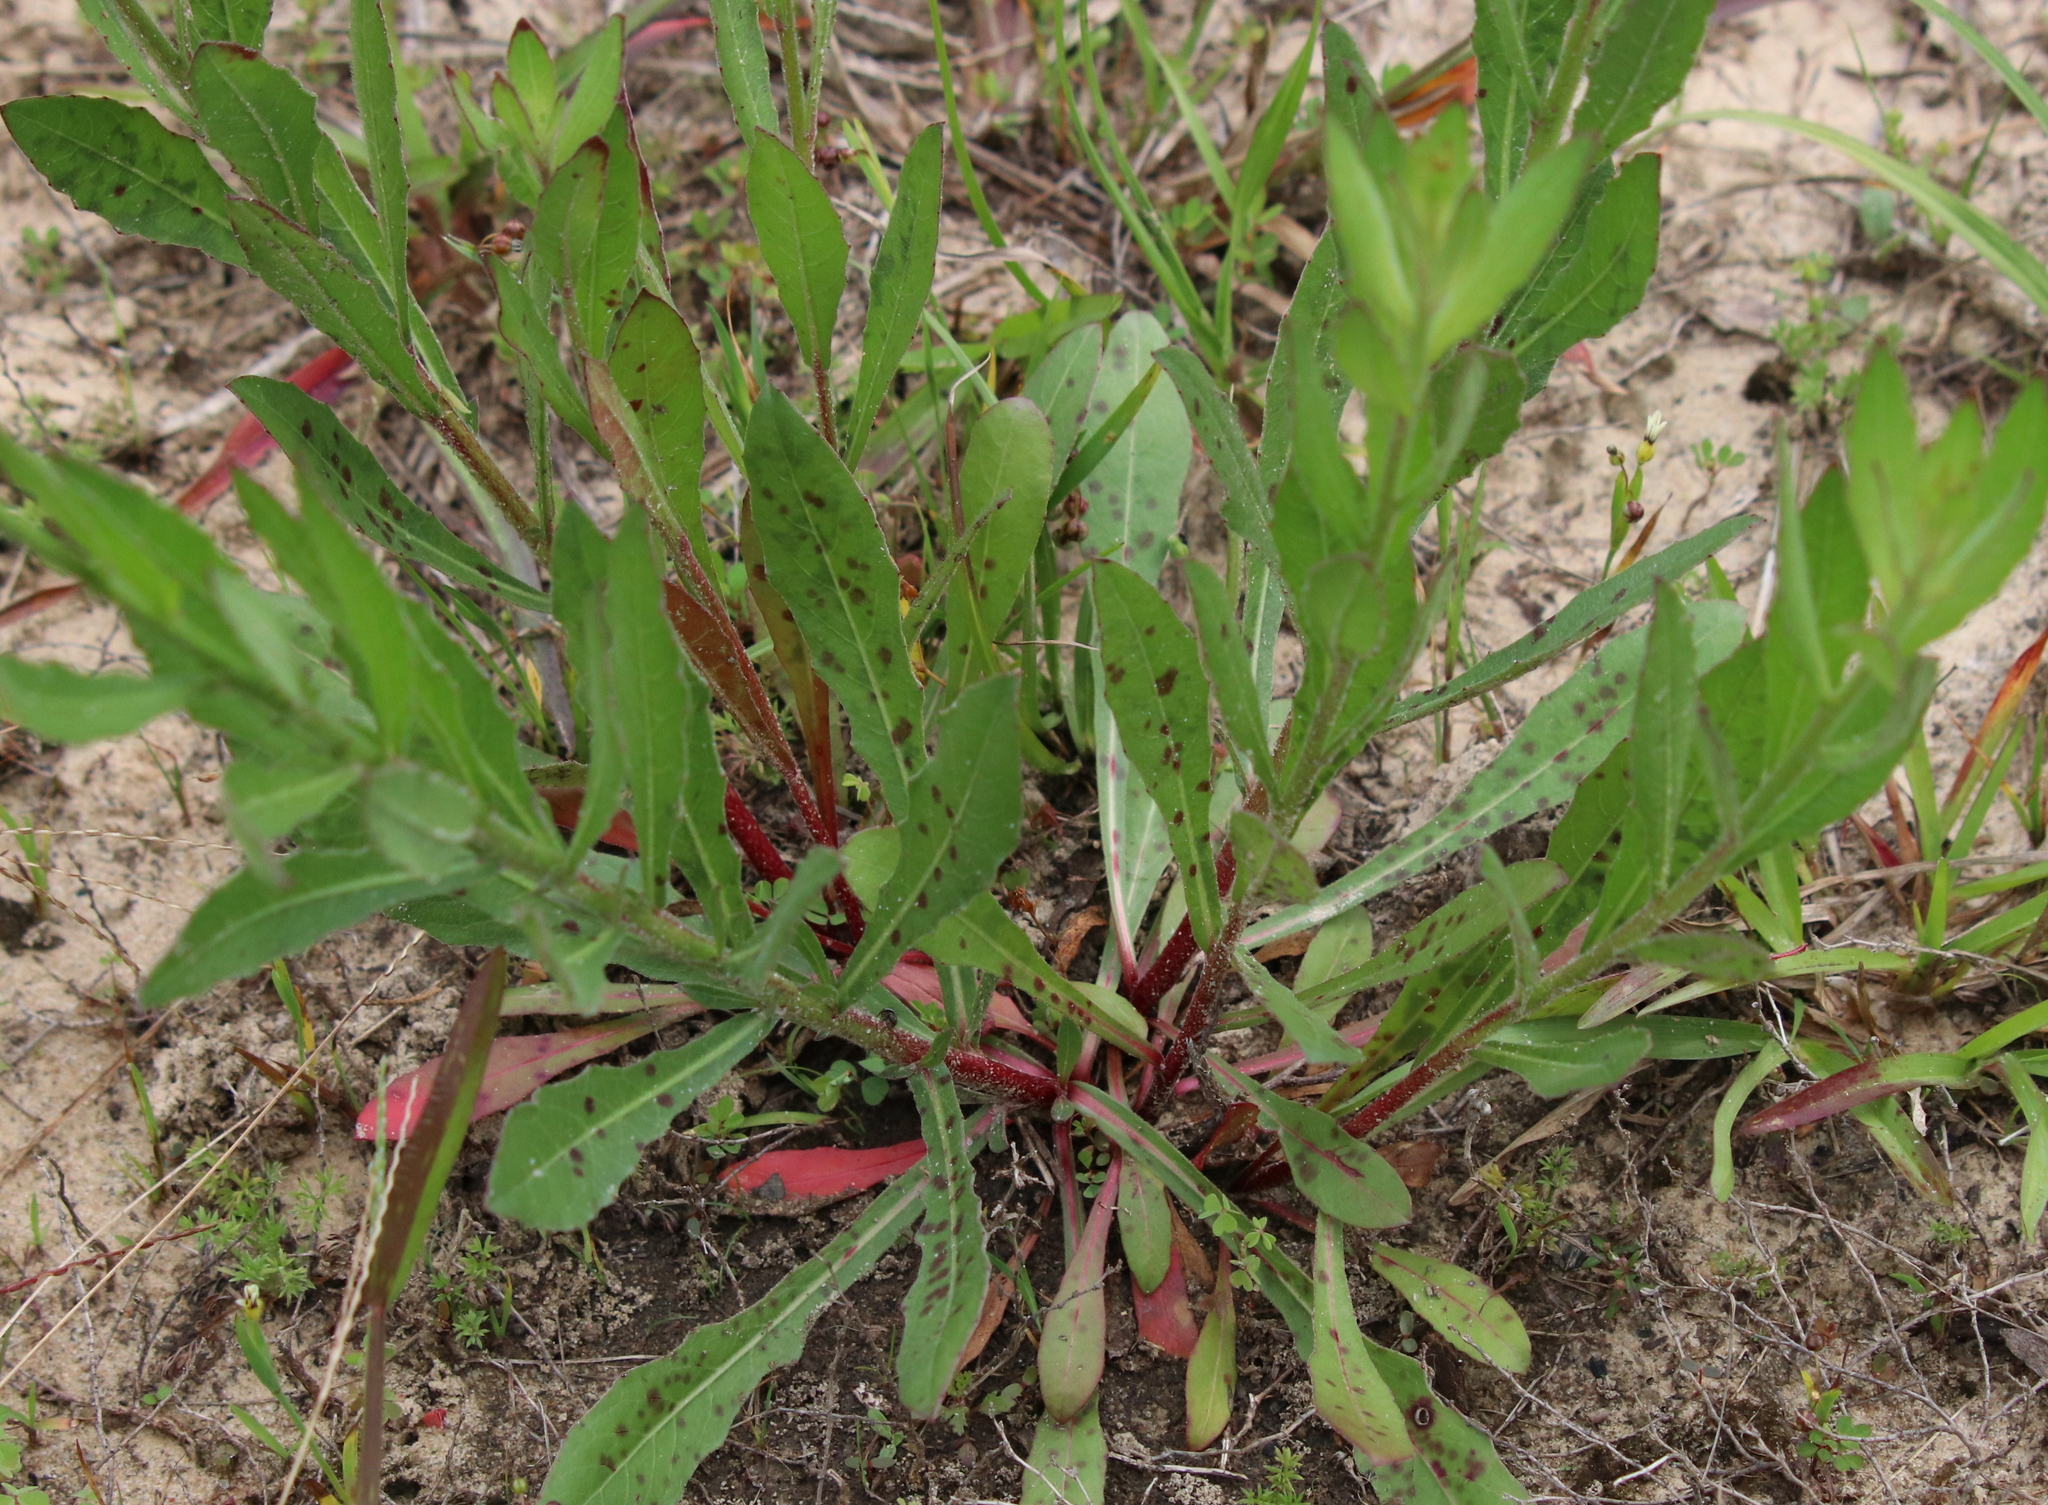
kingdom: Plantae
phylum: Tracheophyta
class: Magnoliopsida
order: Myrtales
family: Onagraceae
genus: Oenothera
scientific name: Oenothera lindheimeri
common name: Lindheimer's beeblossom
